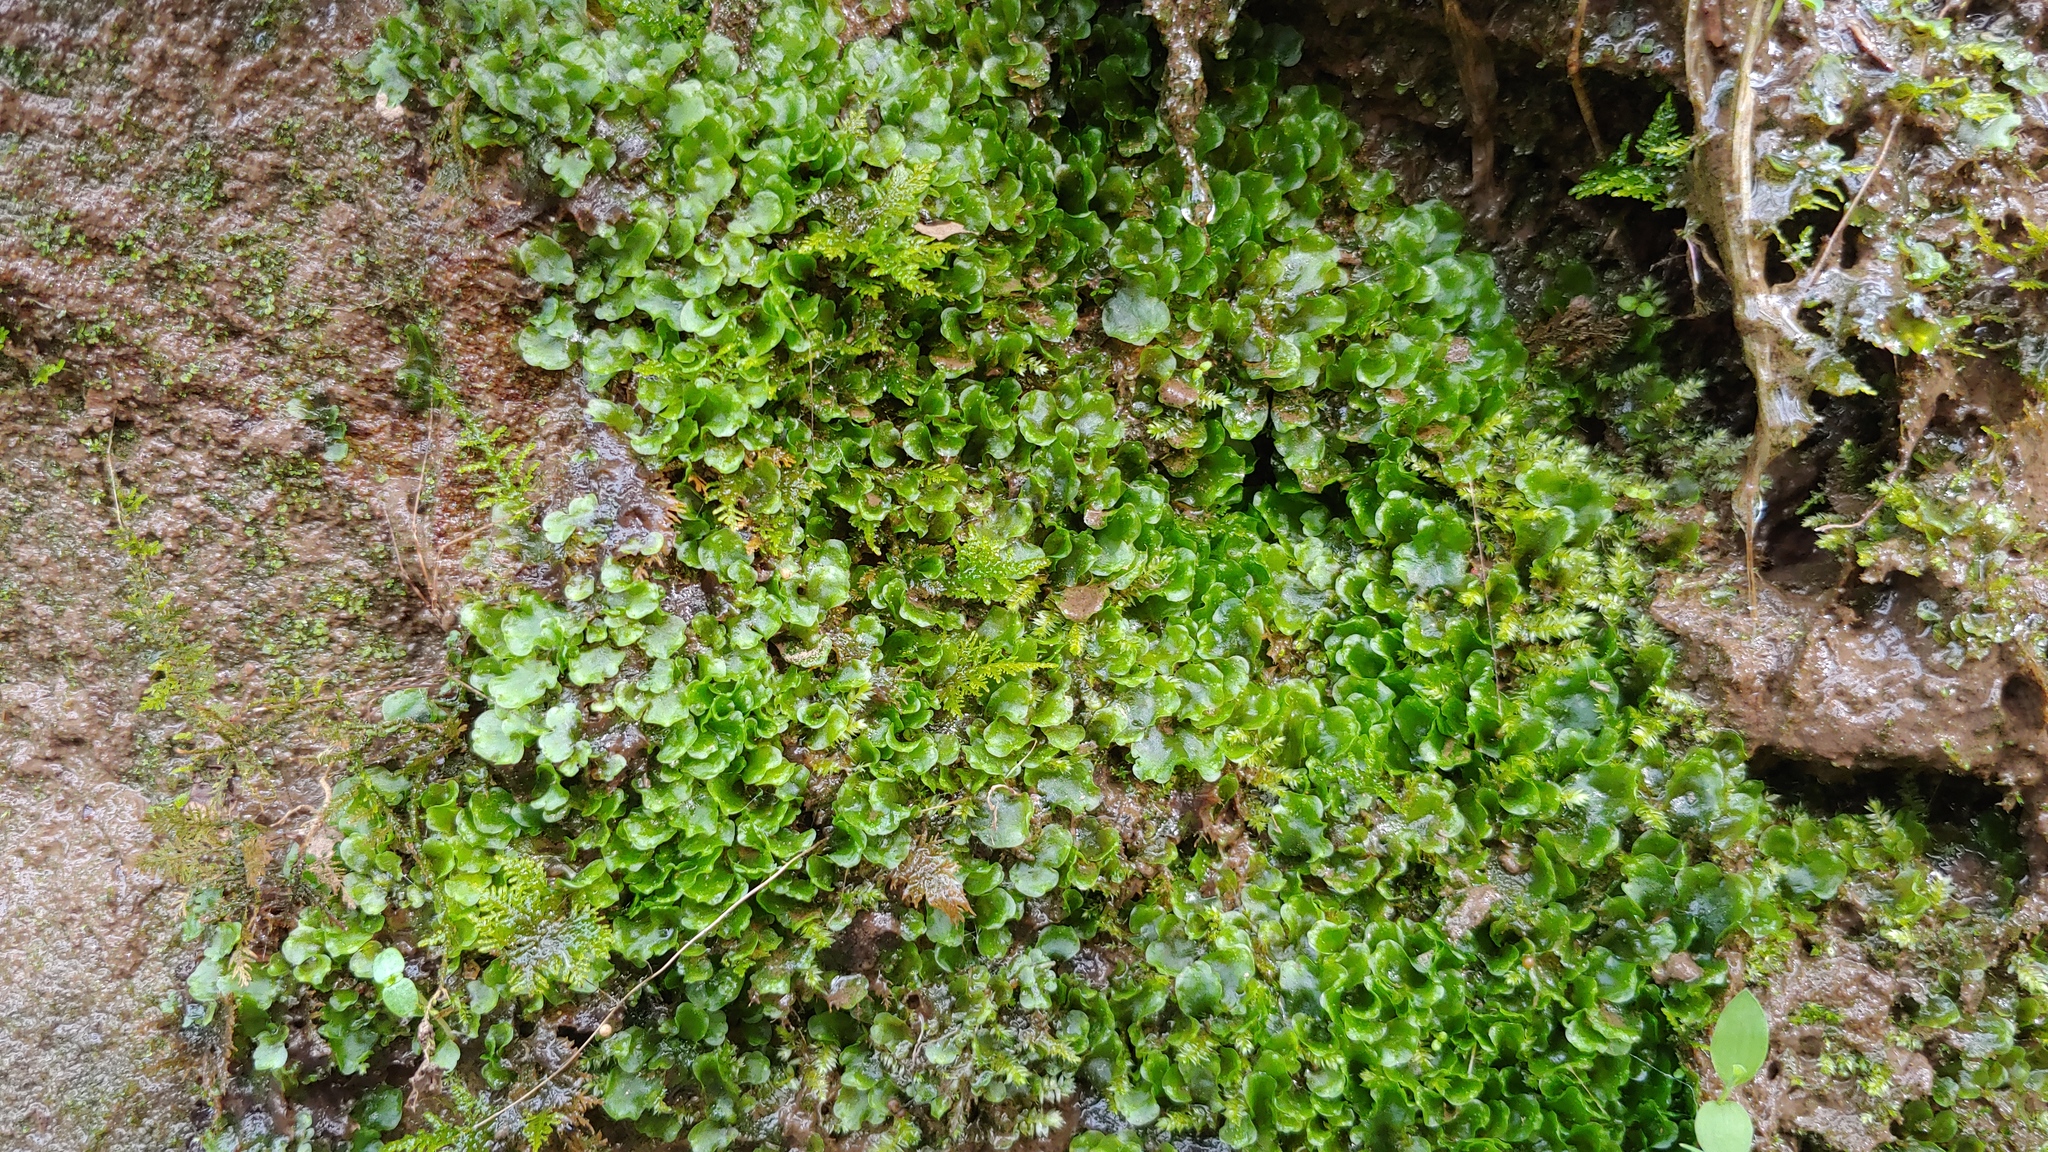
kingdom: Plantae
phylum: Marchantiophyta
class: Jungermanniopsida
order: Pelliales
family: Pelliaceae
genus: Pellia
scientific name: Pellia epiphylla
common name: Common pellia
